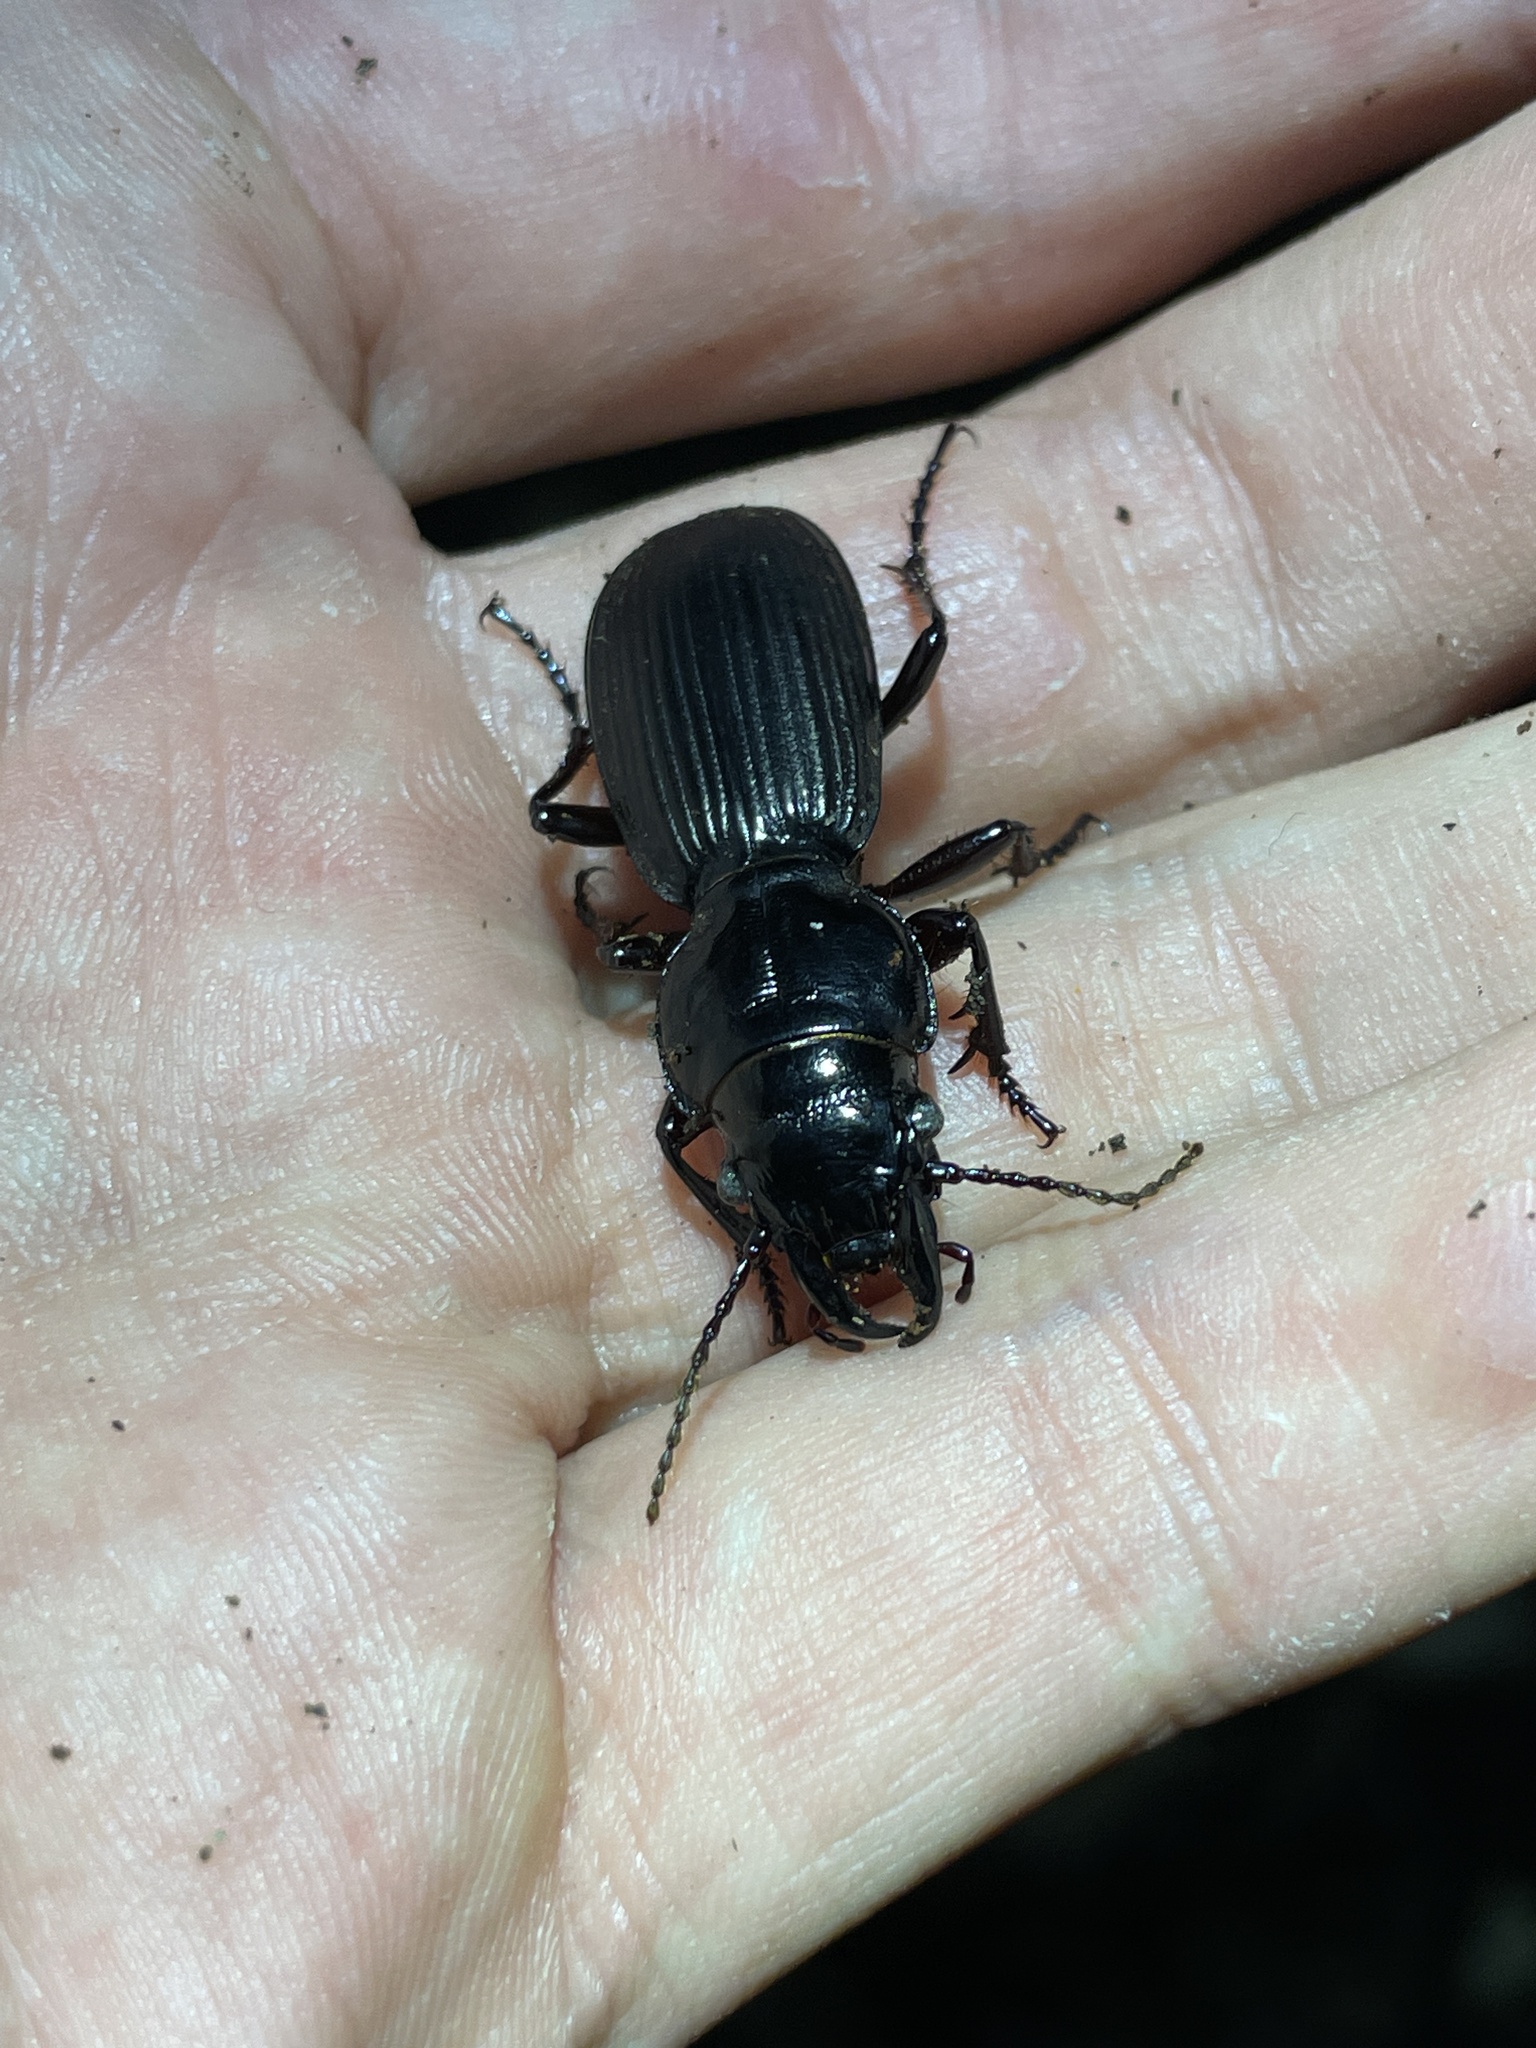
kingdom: Animalia
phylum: Arthropoda
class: Insecta
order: Coleoptera
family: Carabidae
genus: Mecodema
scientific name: Mecodema oconnori
